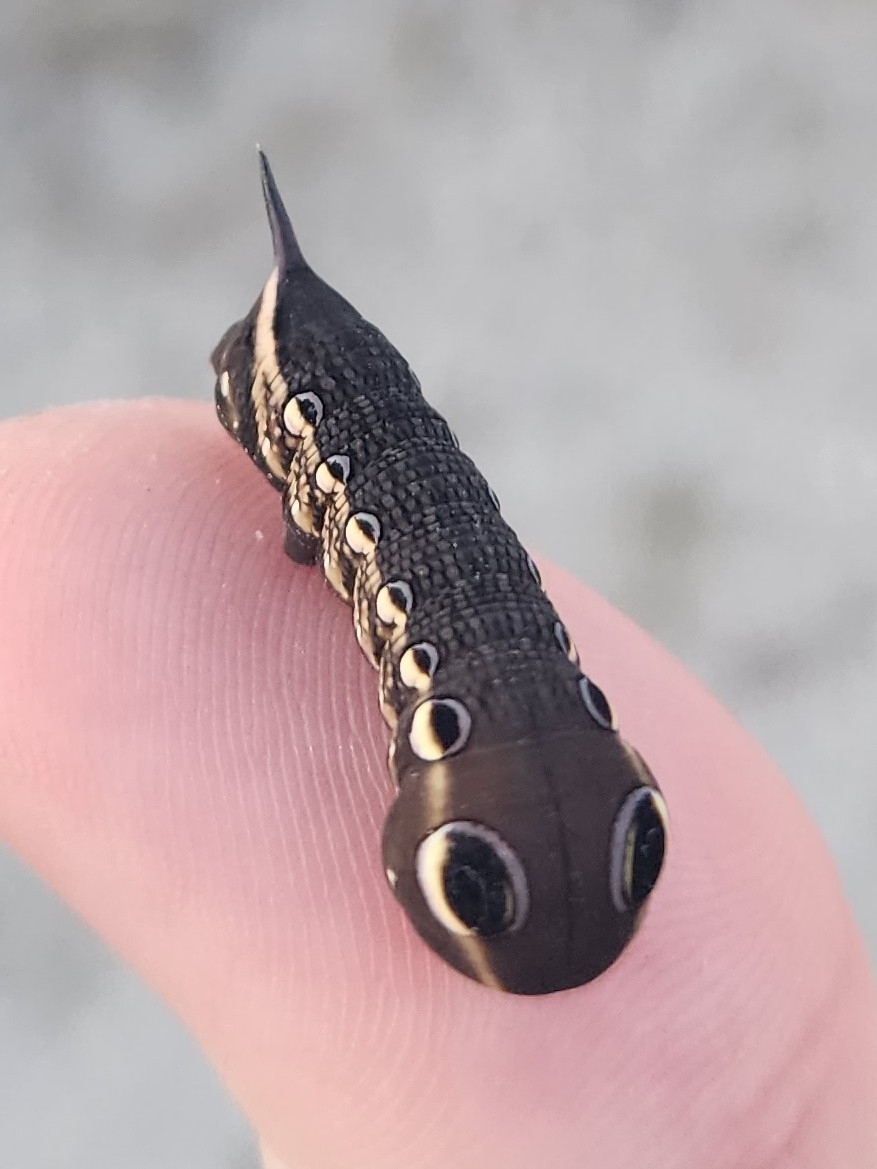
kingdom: Animalia
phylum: Arthropoda
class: Insecta
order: Lepidoptera
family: Sphingidae
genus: Xylophanes
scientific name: Xylophanes tersa
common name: Tersa sphinx
